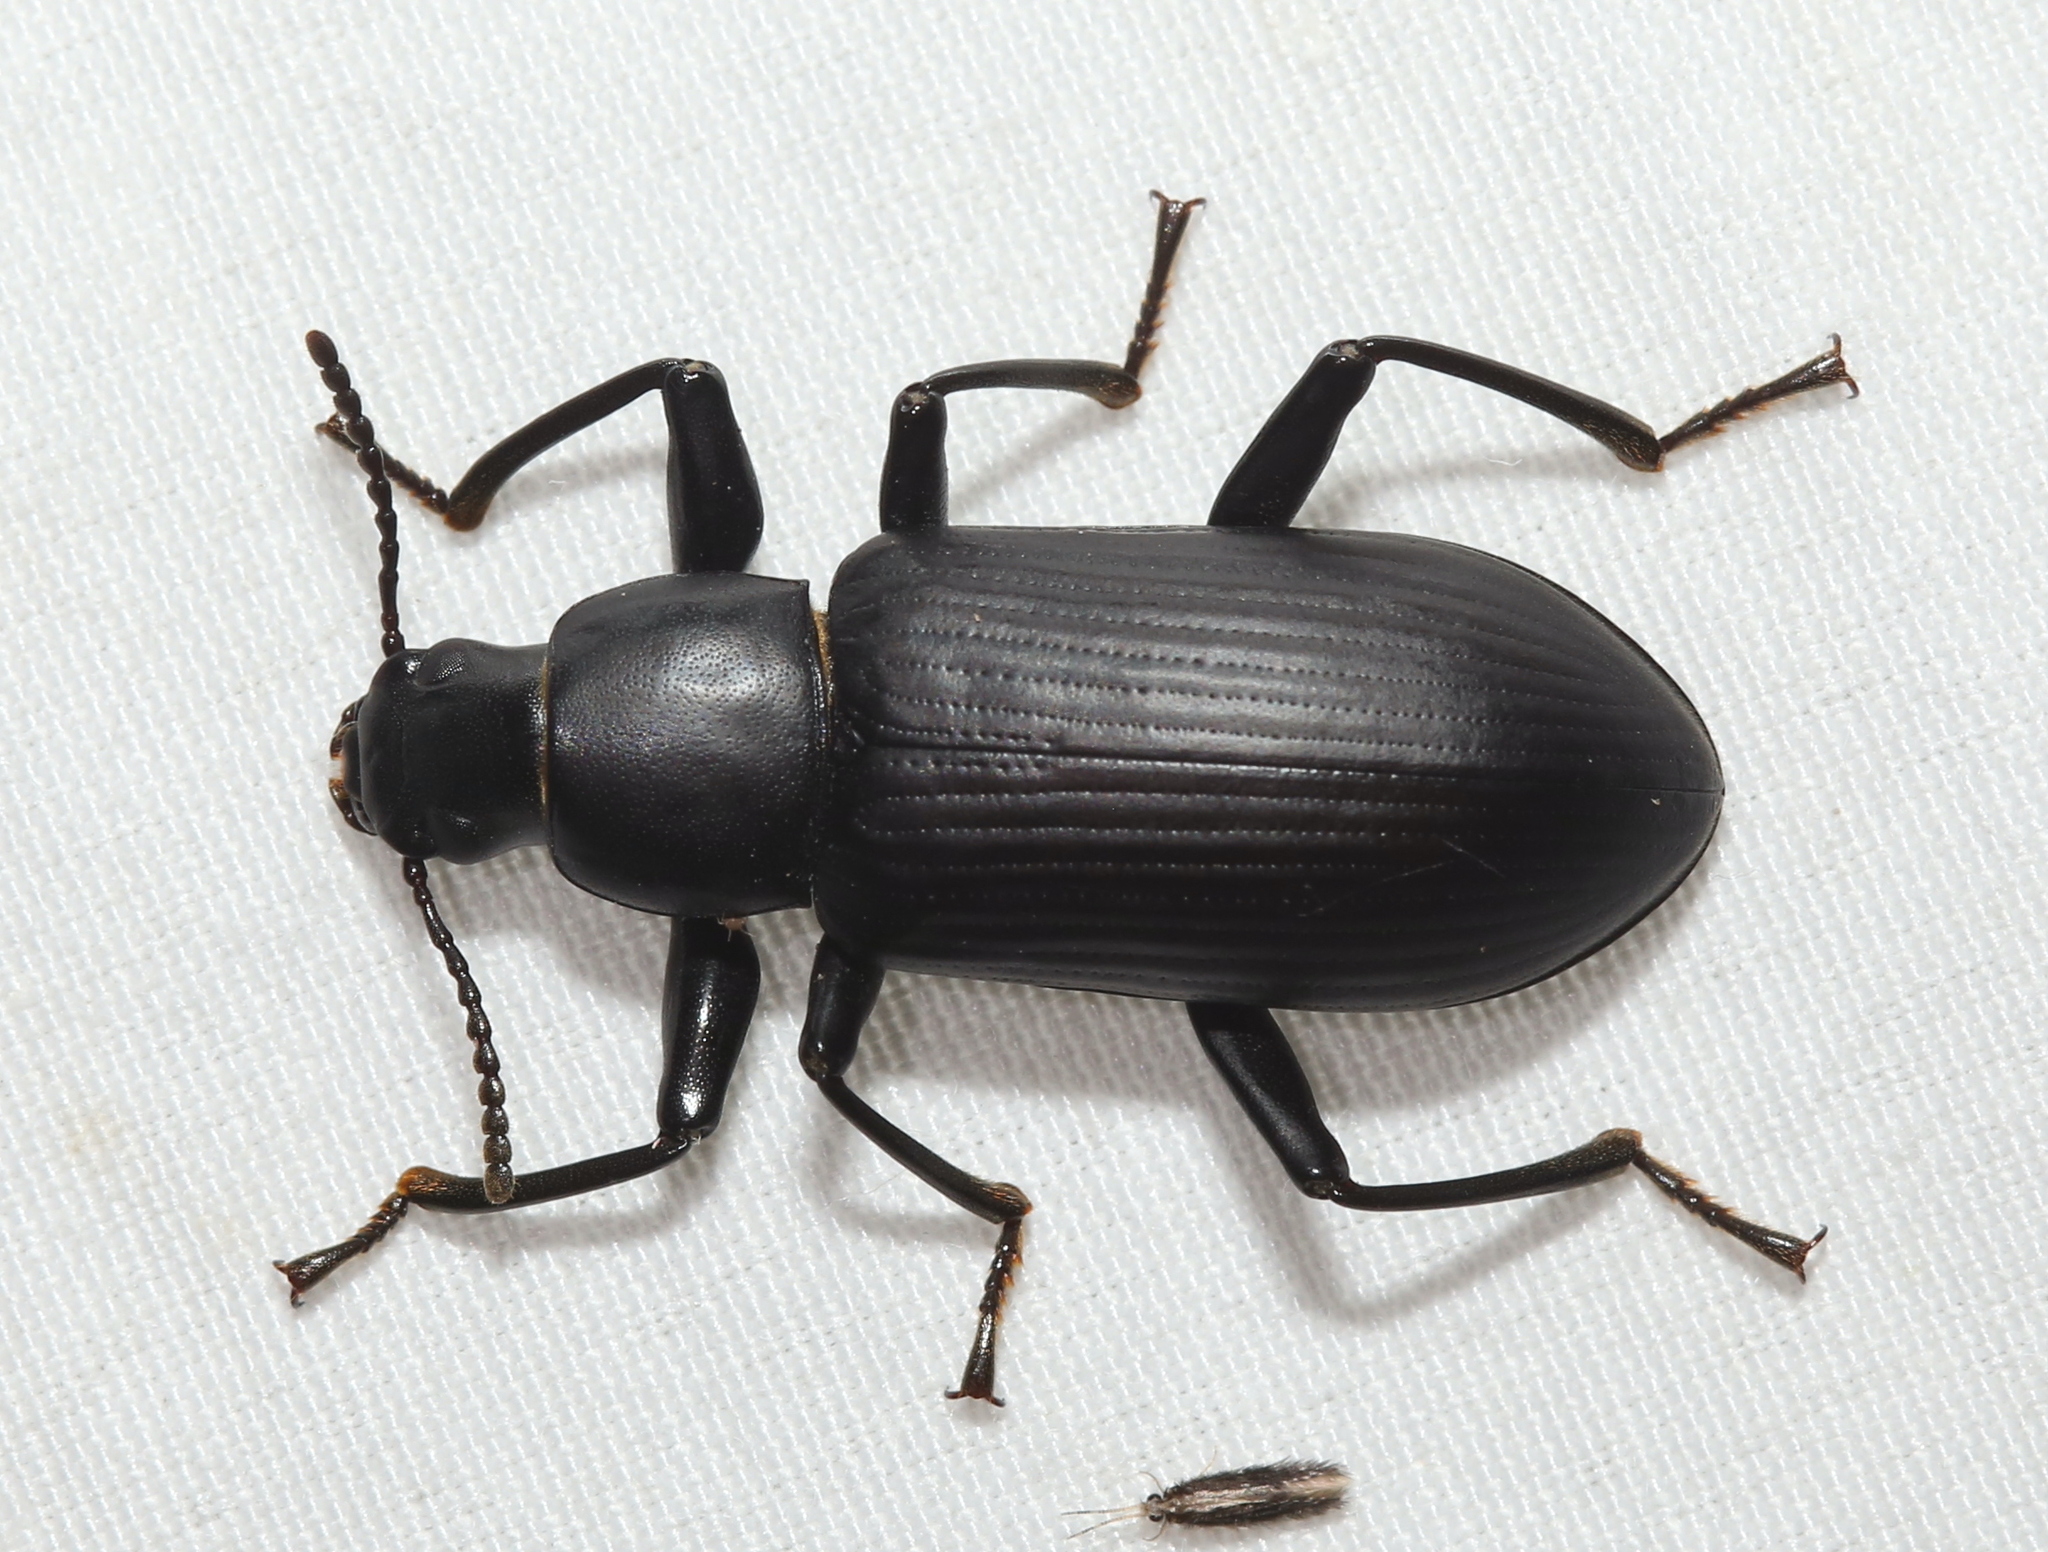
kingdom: Animalia
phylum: Arthropoda
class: Insecta
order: Coleoptera
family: Tenebrionidae
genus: Alobates
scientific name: Alobates
